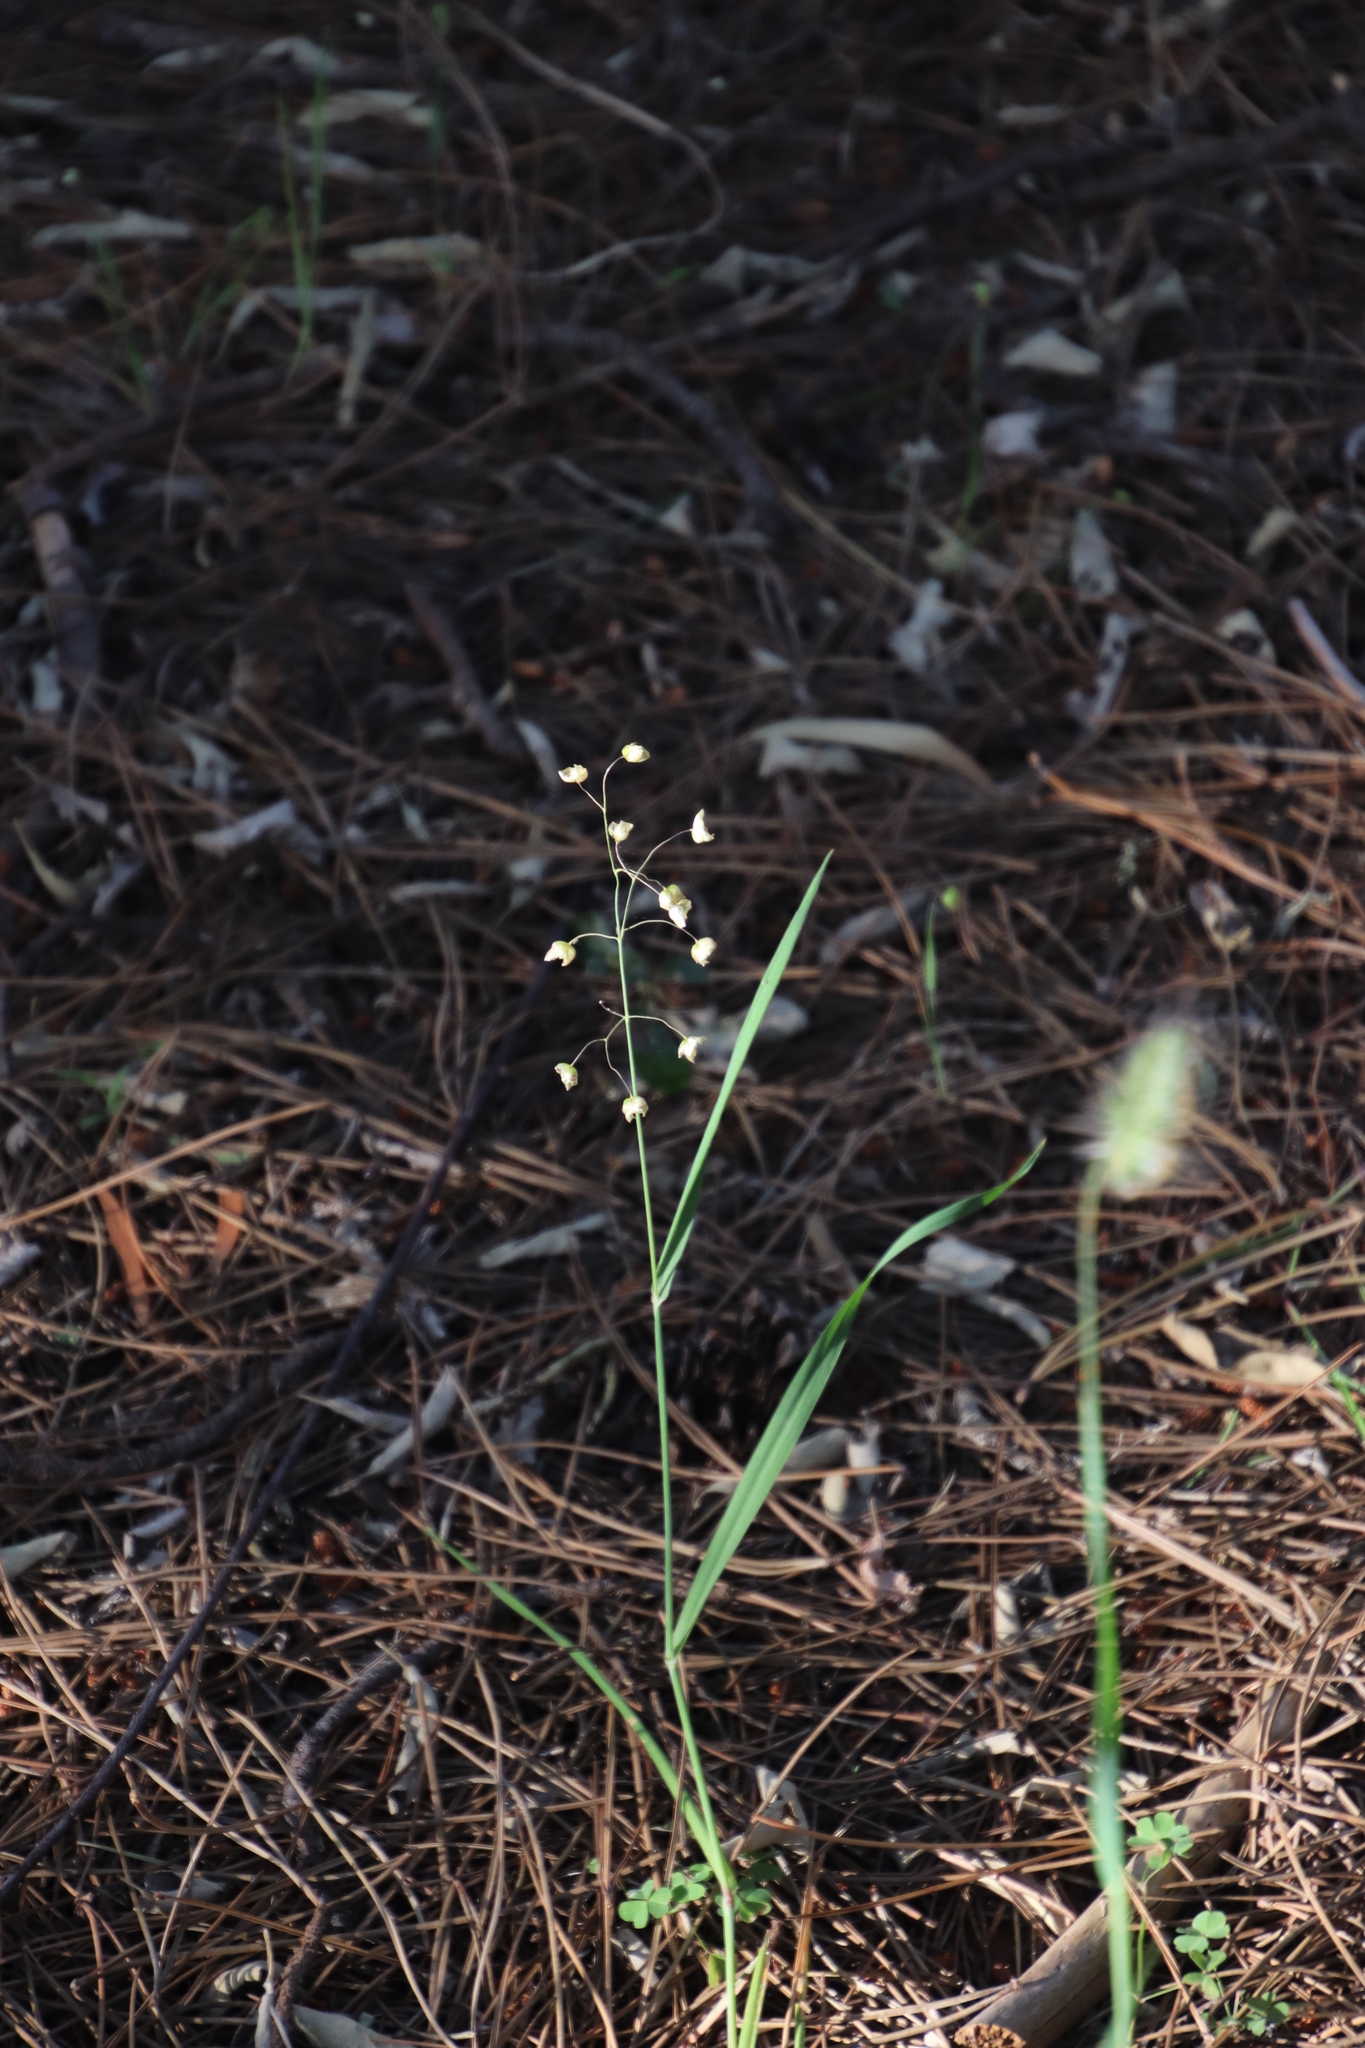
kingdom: Plantae
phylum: Tracheophyta
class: Liliopsida
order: Poales
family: Poaceae
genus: Briza
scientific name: Briza maxima
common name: Big quakinggrass
